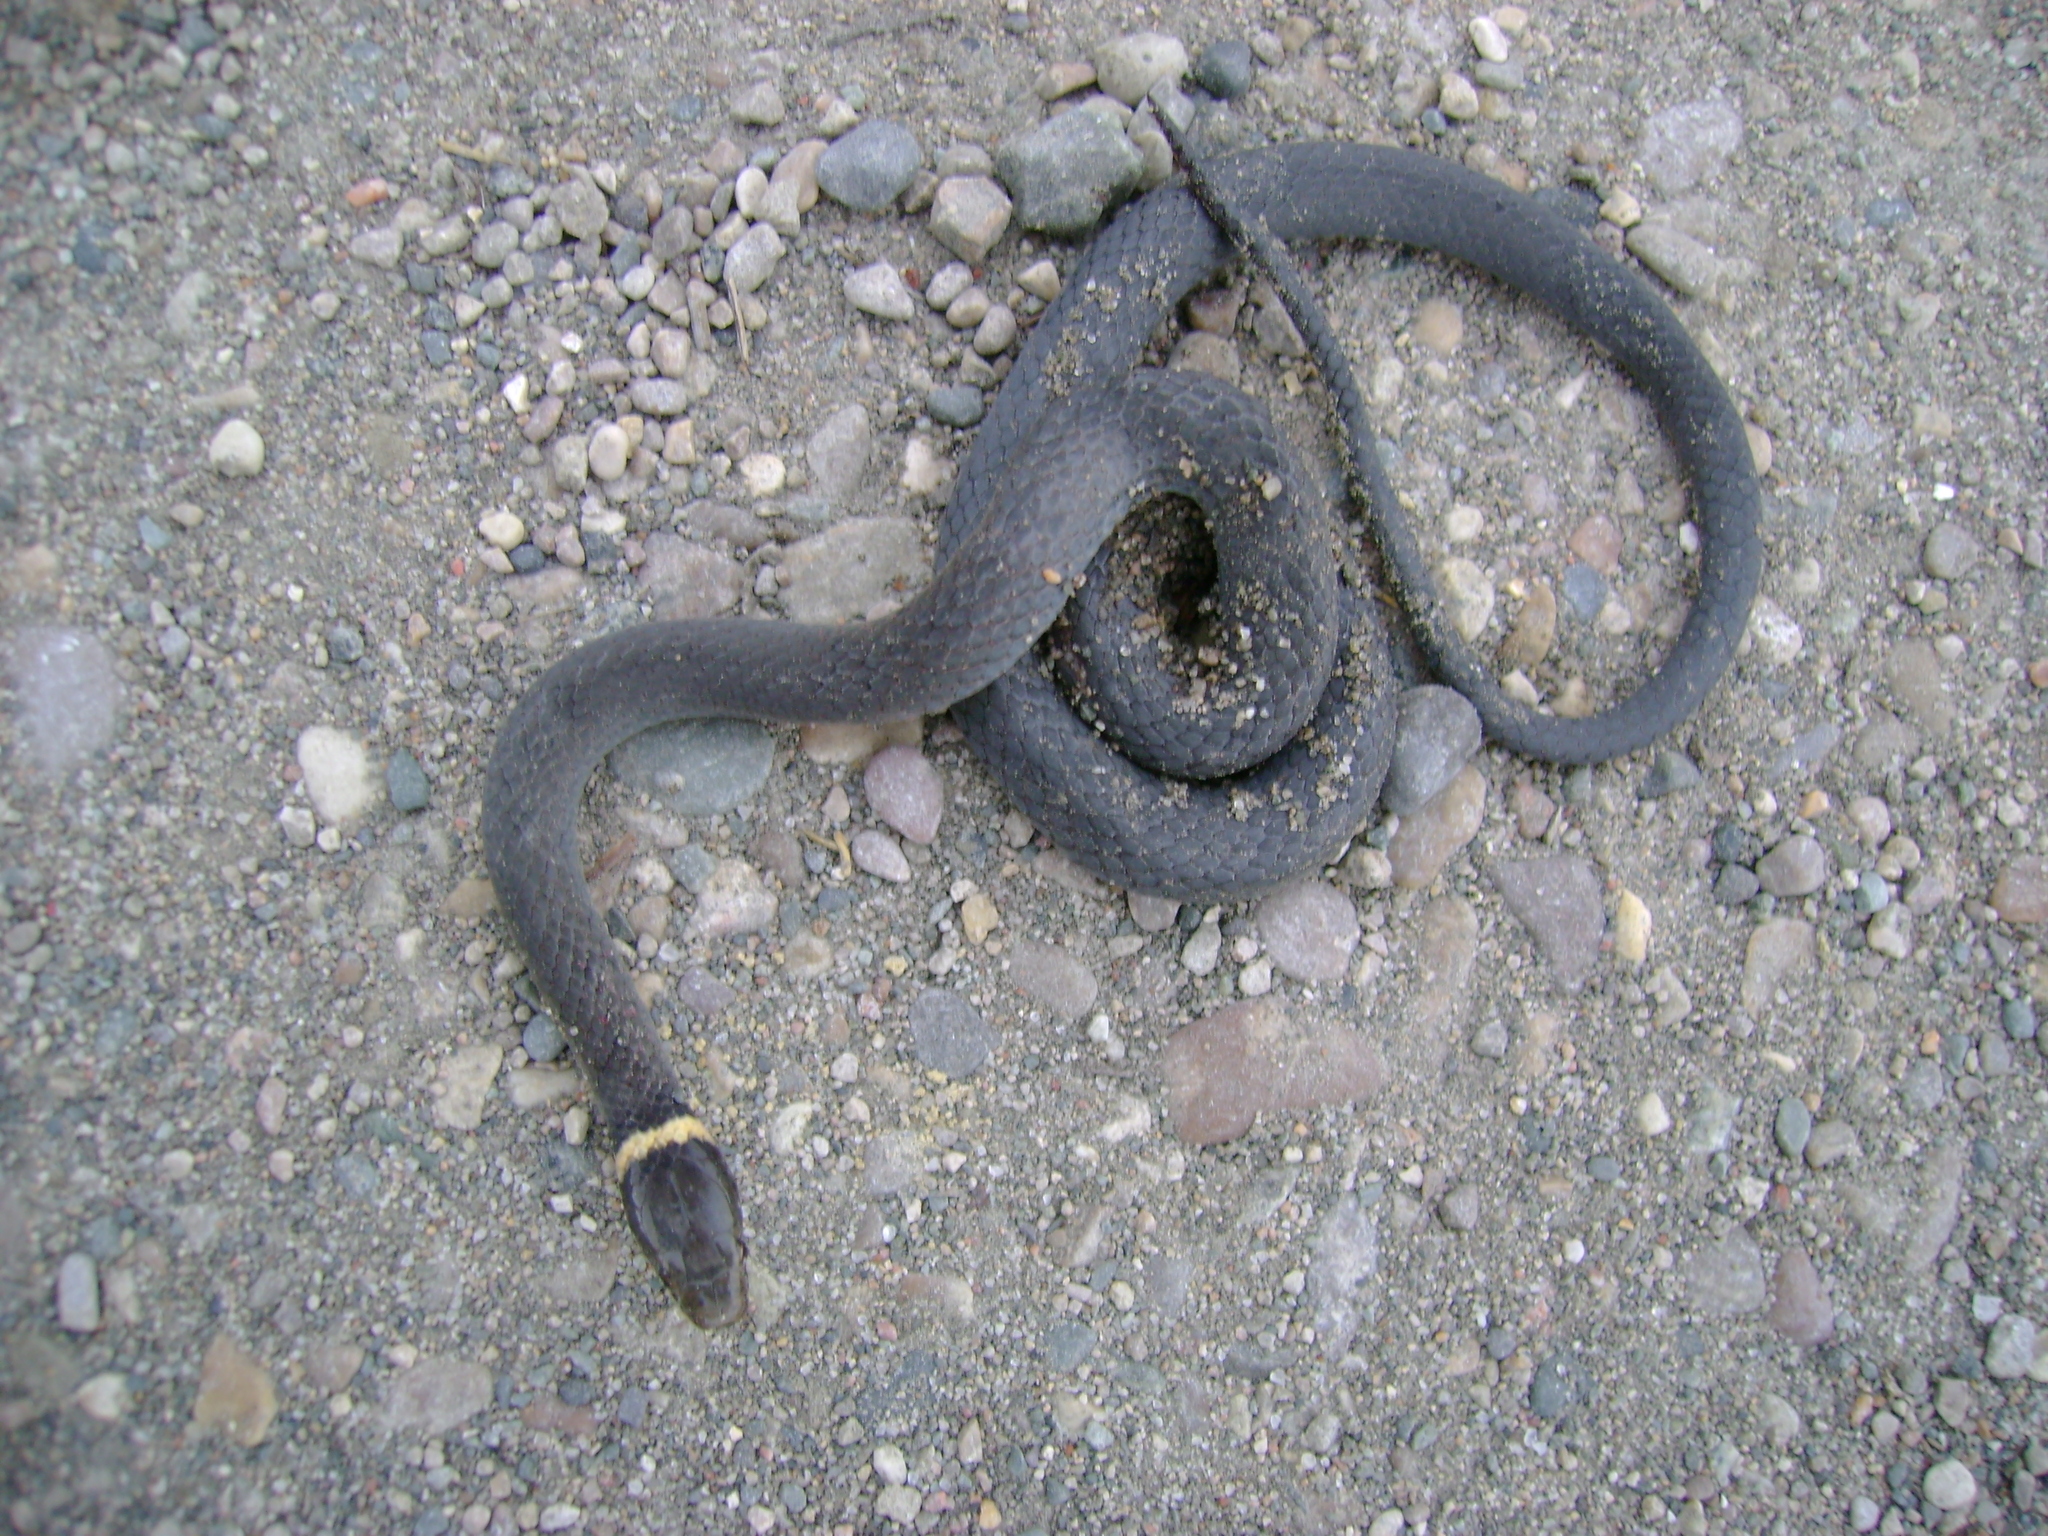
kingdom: Animalia
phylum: Chordata
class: Squamata
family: Colubridae
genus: Diadophis
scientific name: Diadophis punctatus
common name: Ringneck snake
